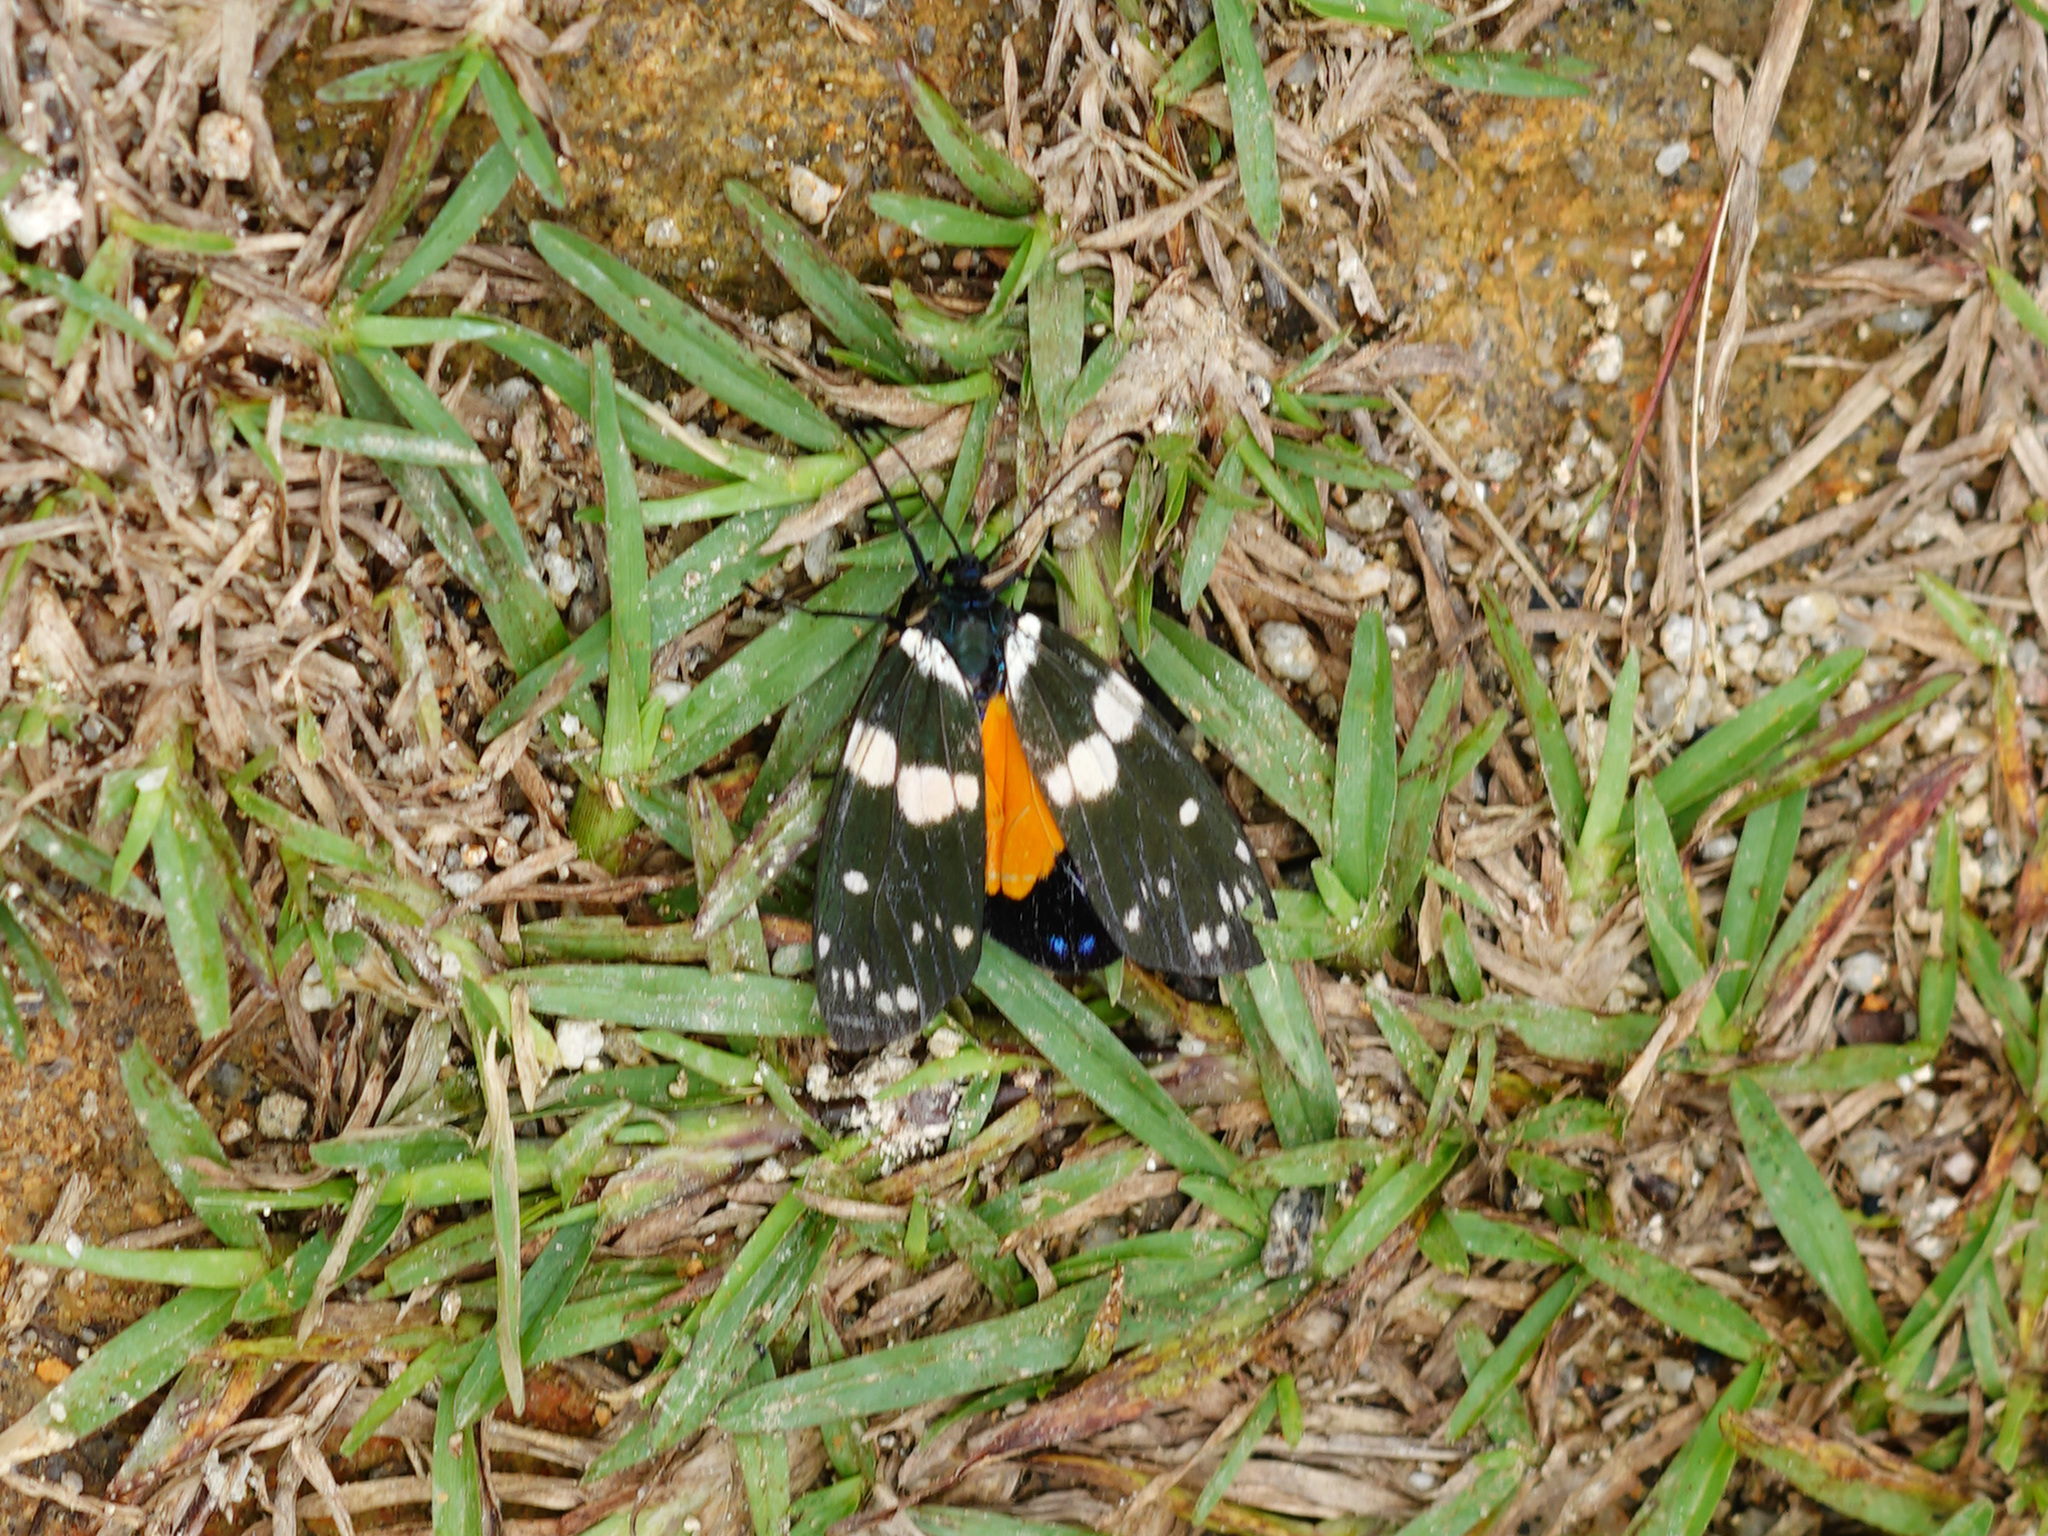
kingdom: Animalia
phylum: Arthropoda
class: Insecta
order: Lepidoptera
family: Zygaenidae
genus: Eterusia
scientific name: Eterusia aedea
